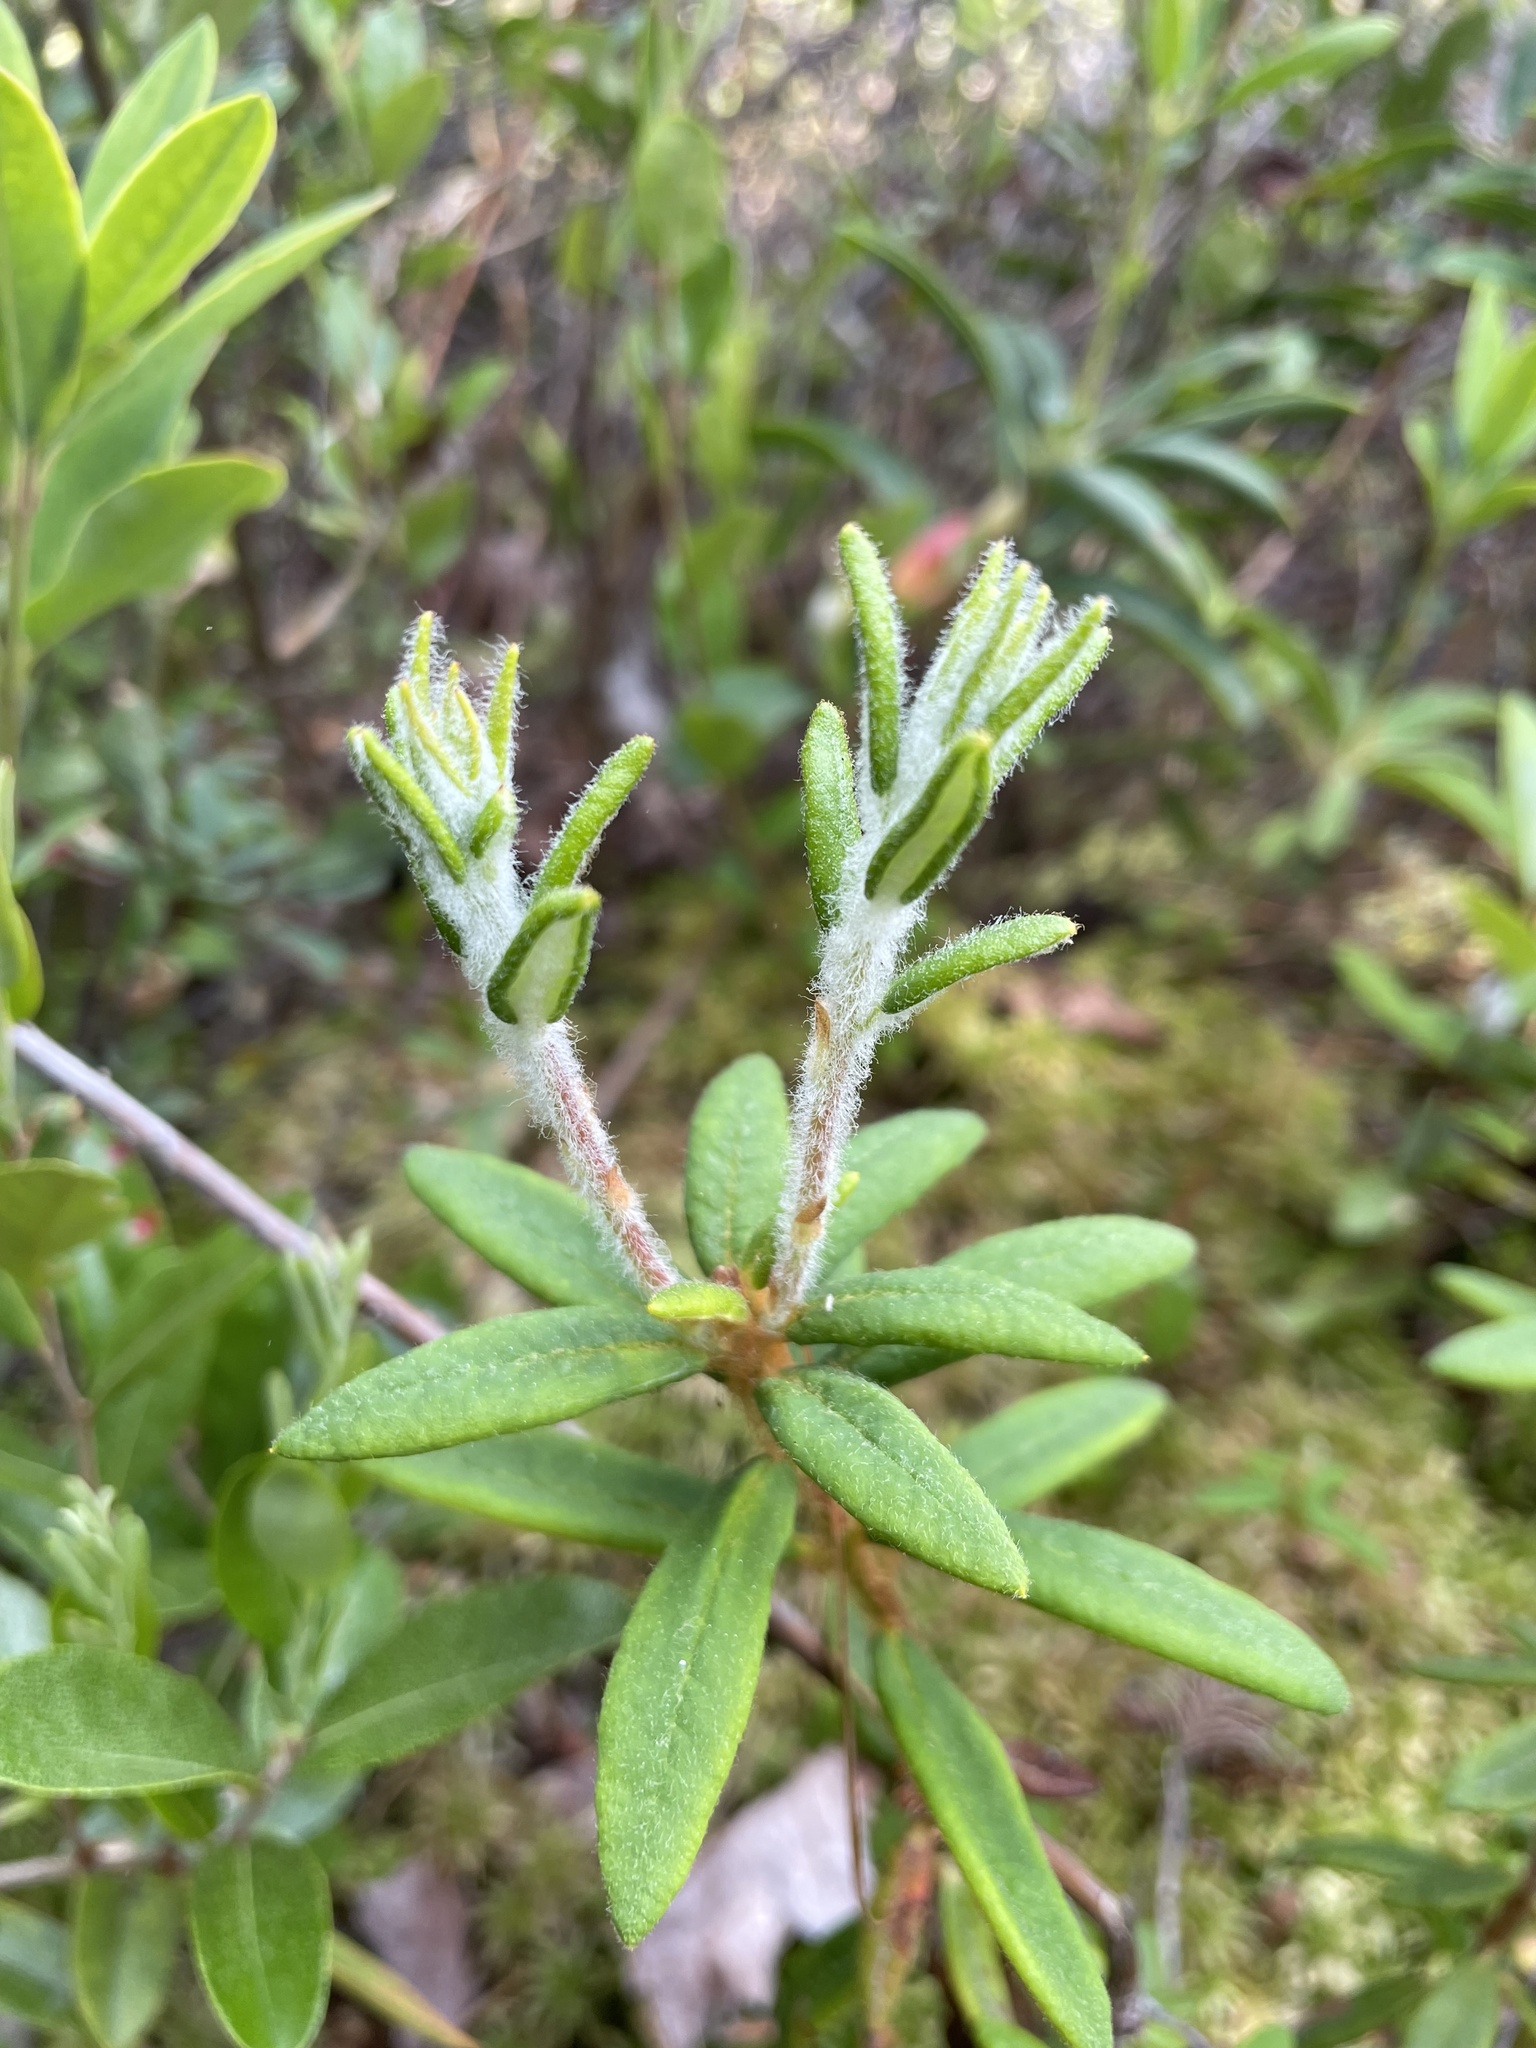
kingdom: Plantae
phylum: Tracheophyta
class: Magnoliopsida
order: Ericales
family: Ericaceae
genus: Rhododendron
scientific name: Rhododendron groenlandicum
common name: Bog labrador tea
